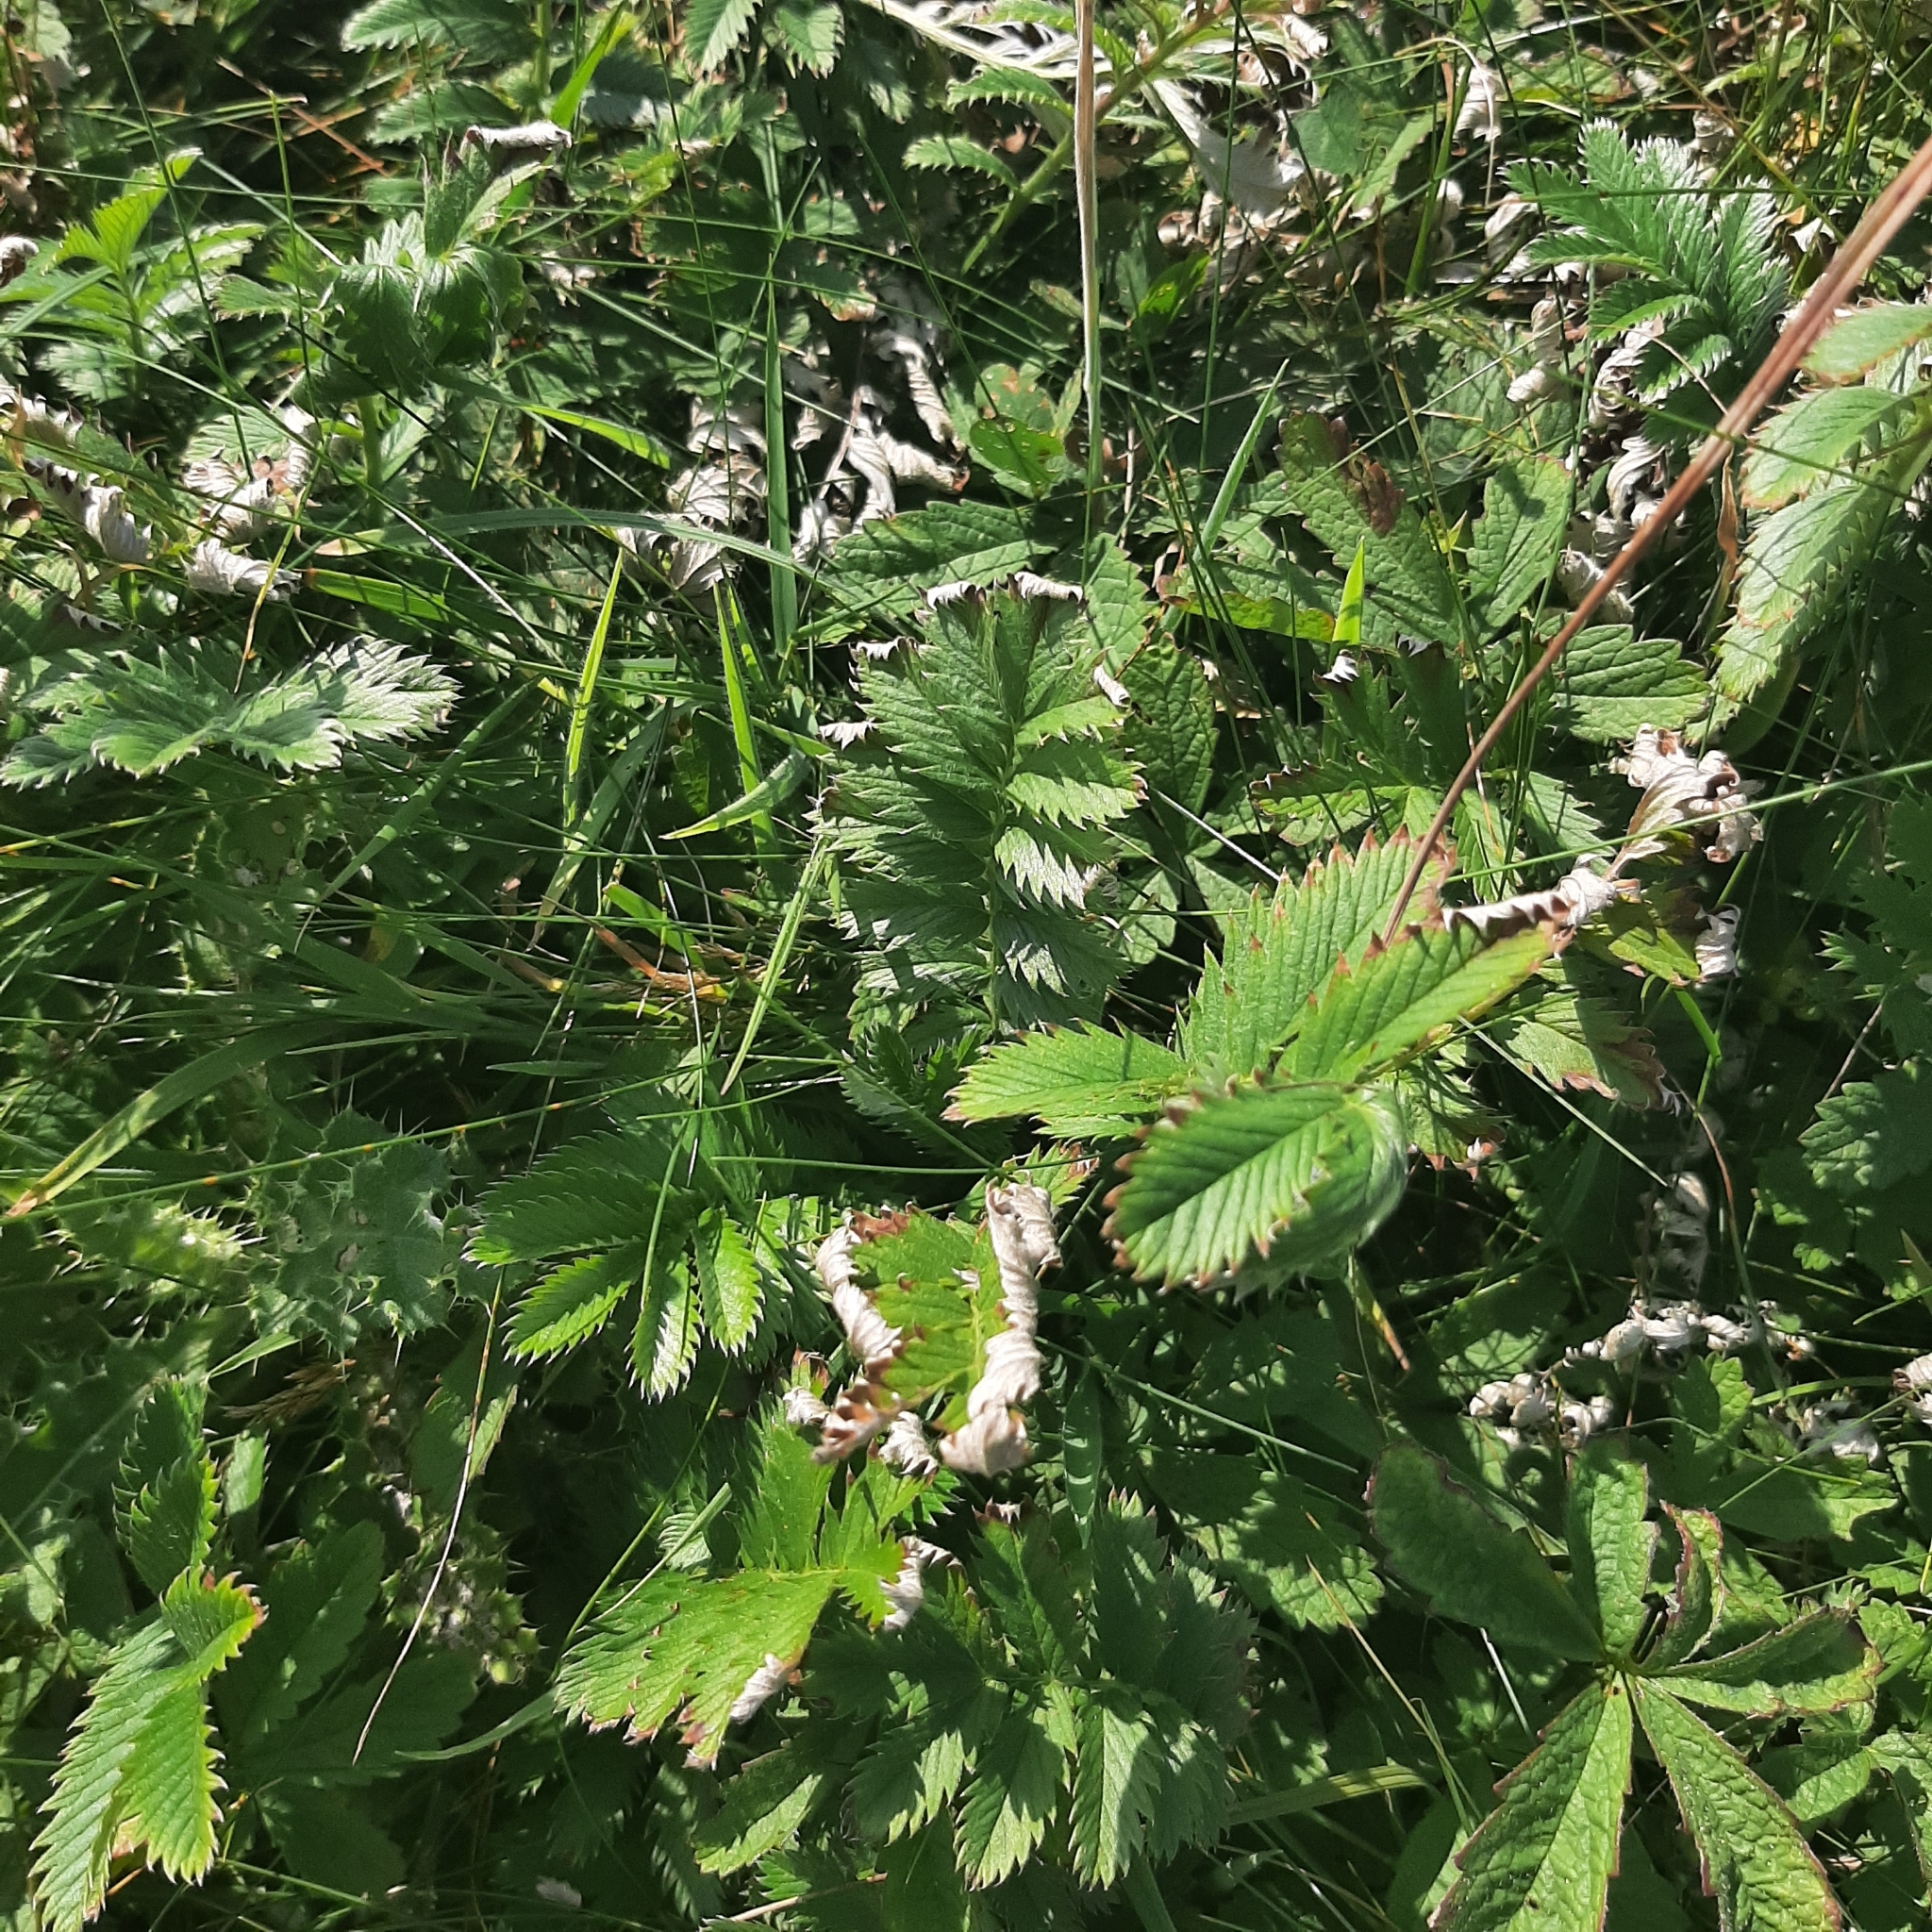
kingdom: Plantae
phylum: Tracheophyta
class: Magnoliopsida
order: Rosales
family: Rosaceae
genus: Argentina
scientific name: Argentina anserina
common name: Common silverweed
